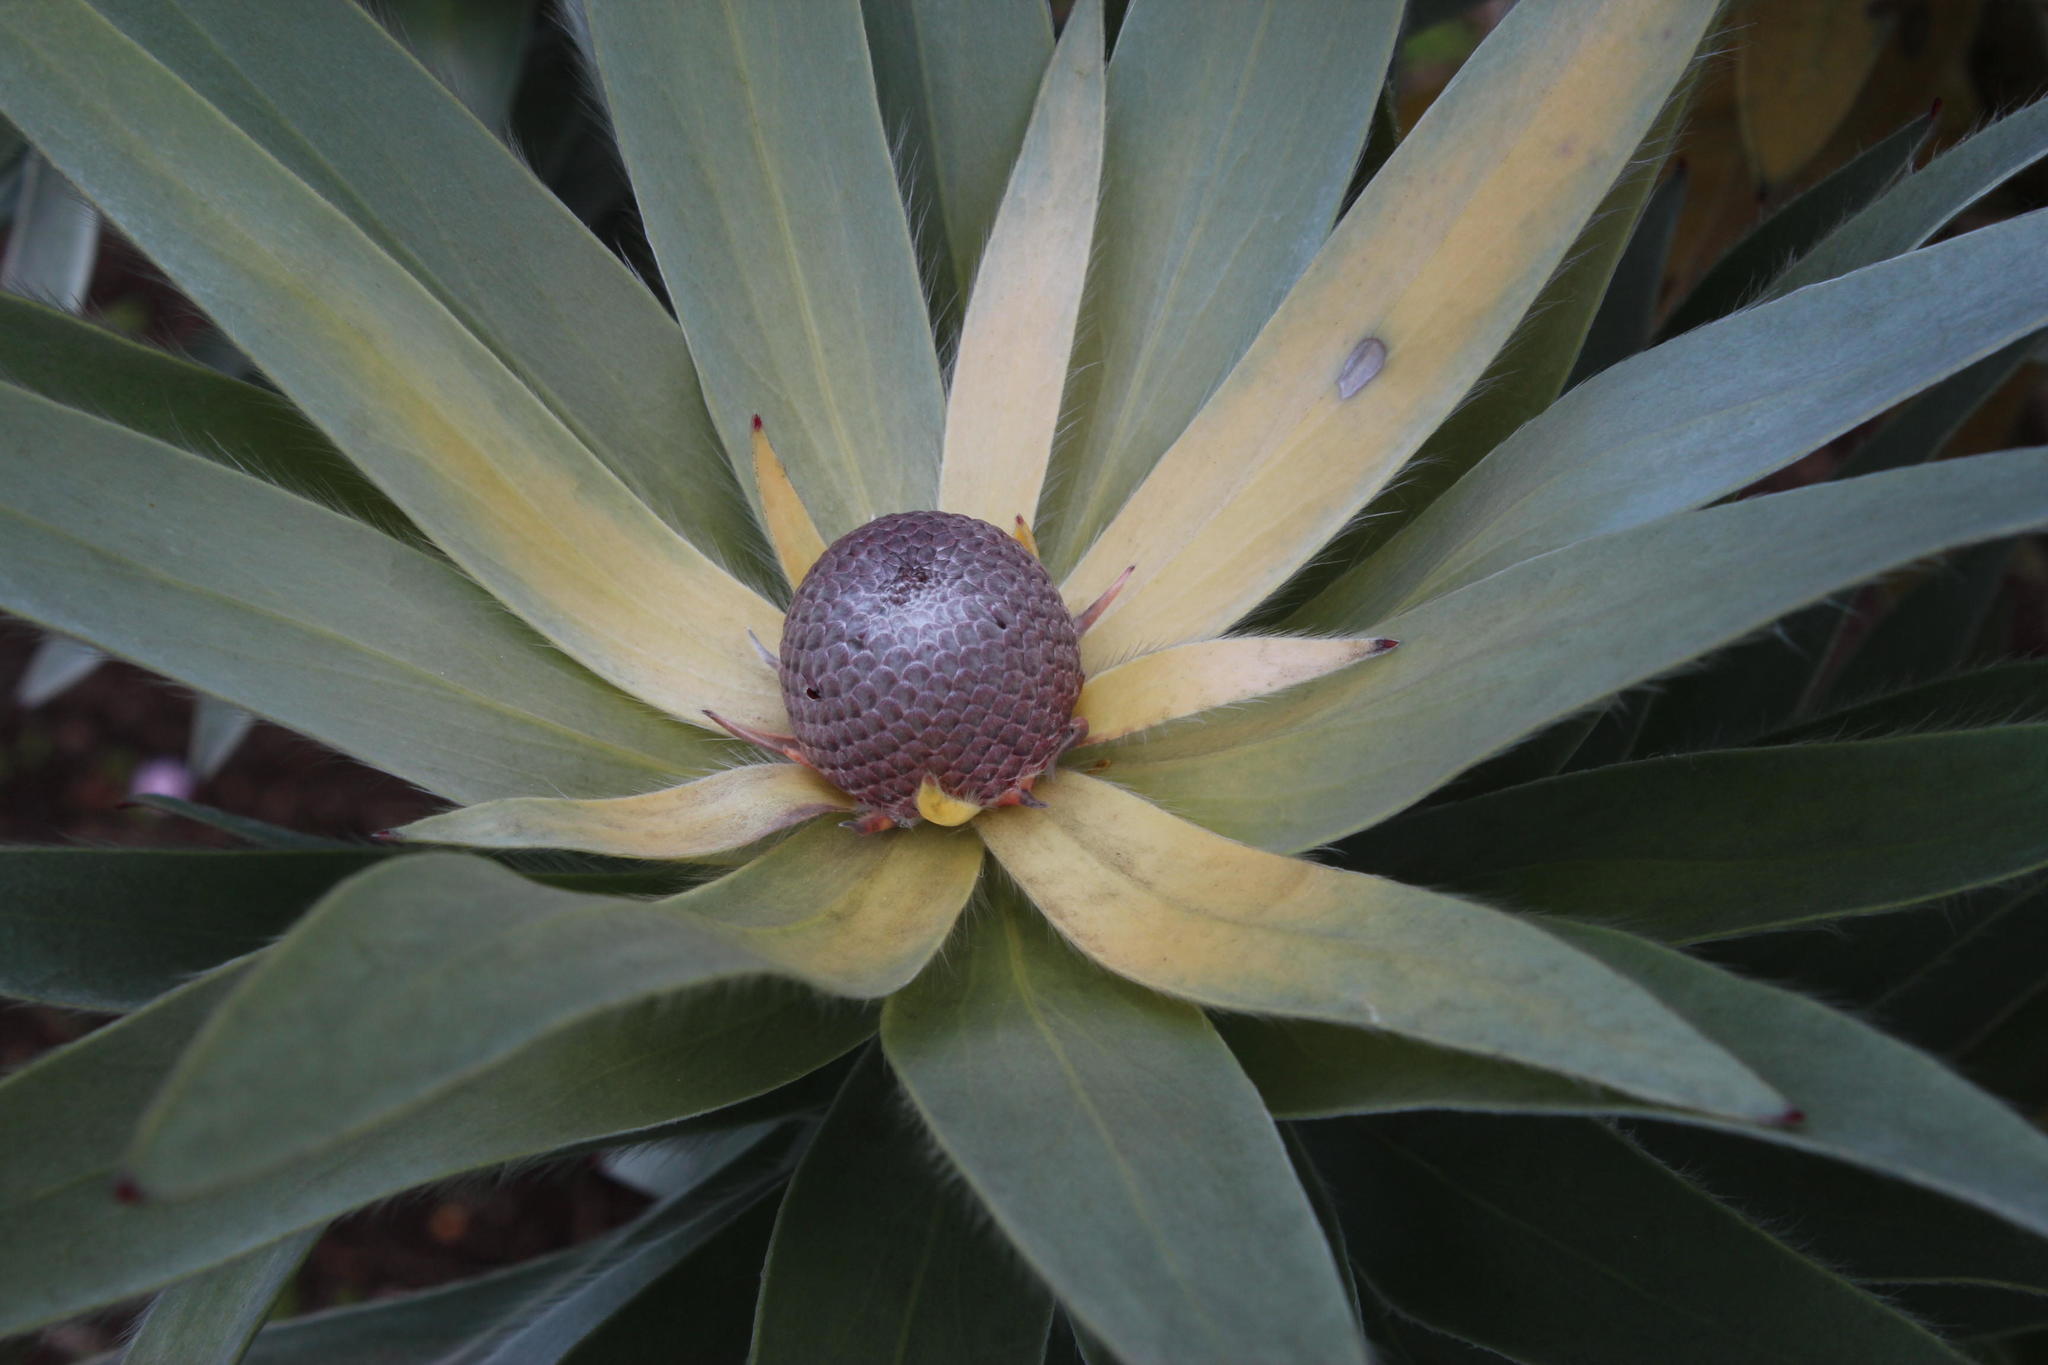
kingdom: Plantae
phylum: Tracheophyta
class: Magnoliopsida
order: Proteales
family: Proteaceae
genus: Leucadendron
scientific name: Leucadendron argenteum
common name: Cape silver tree
